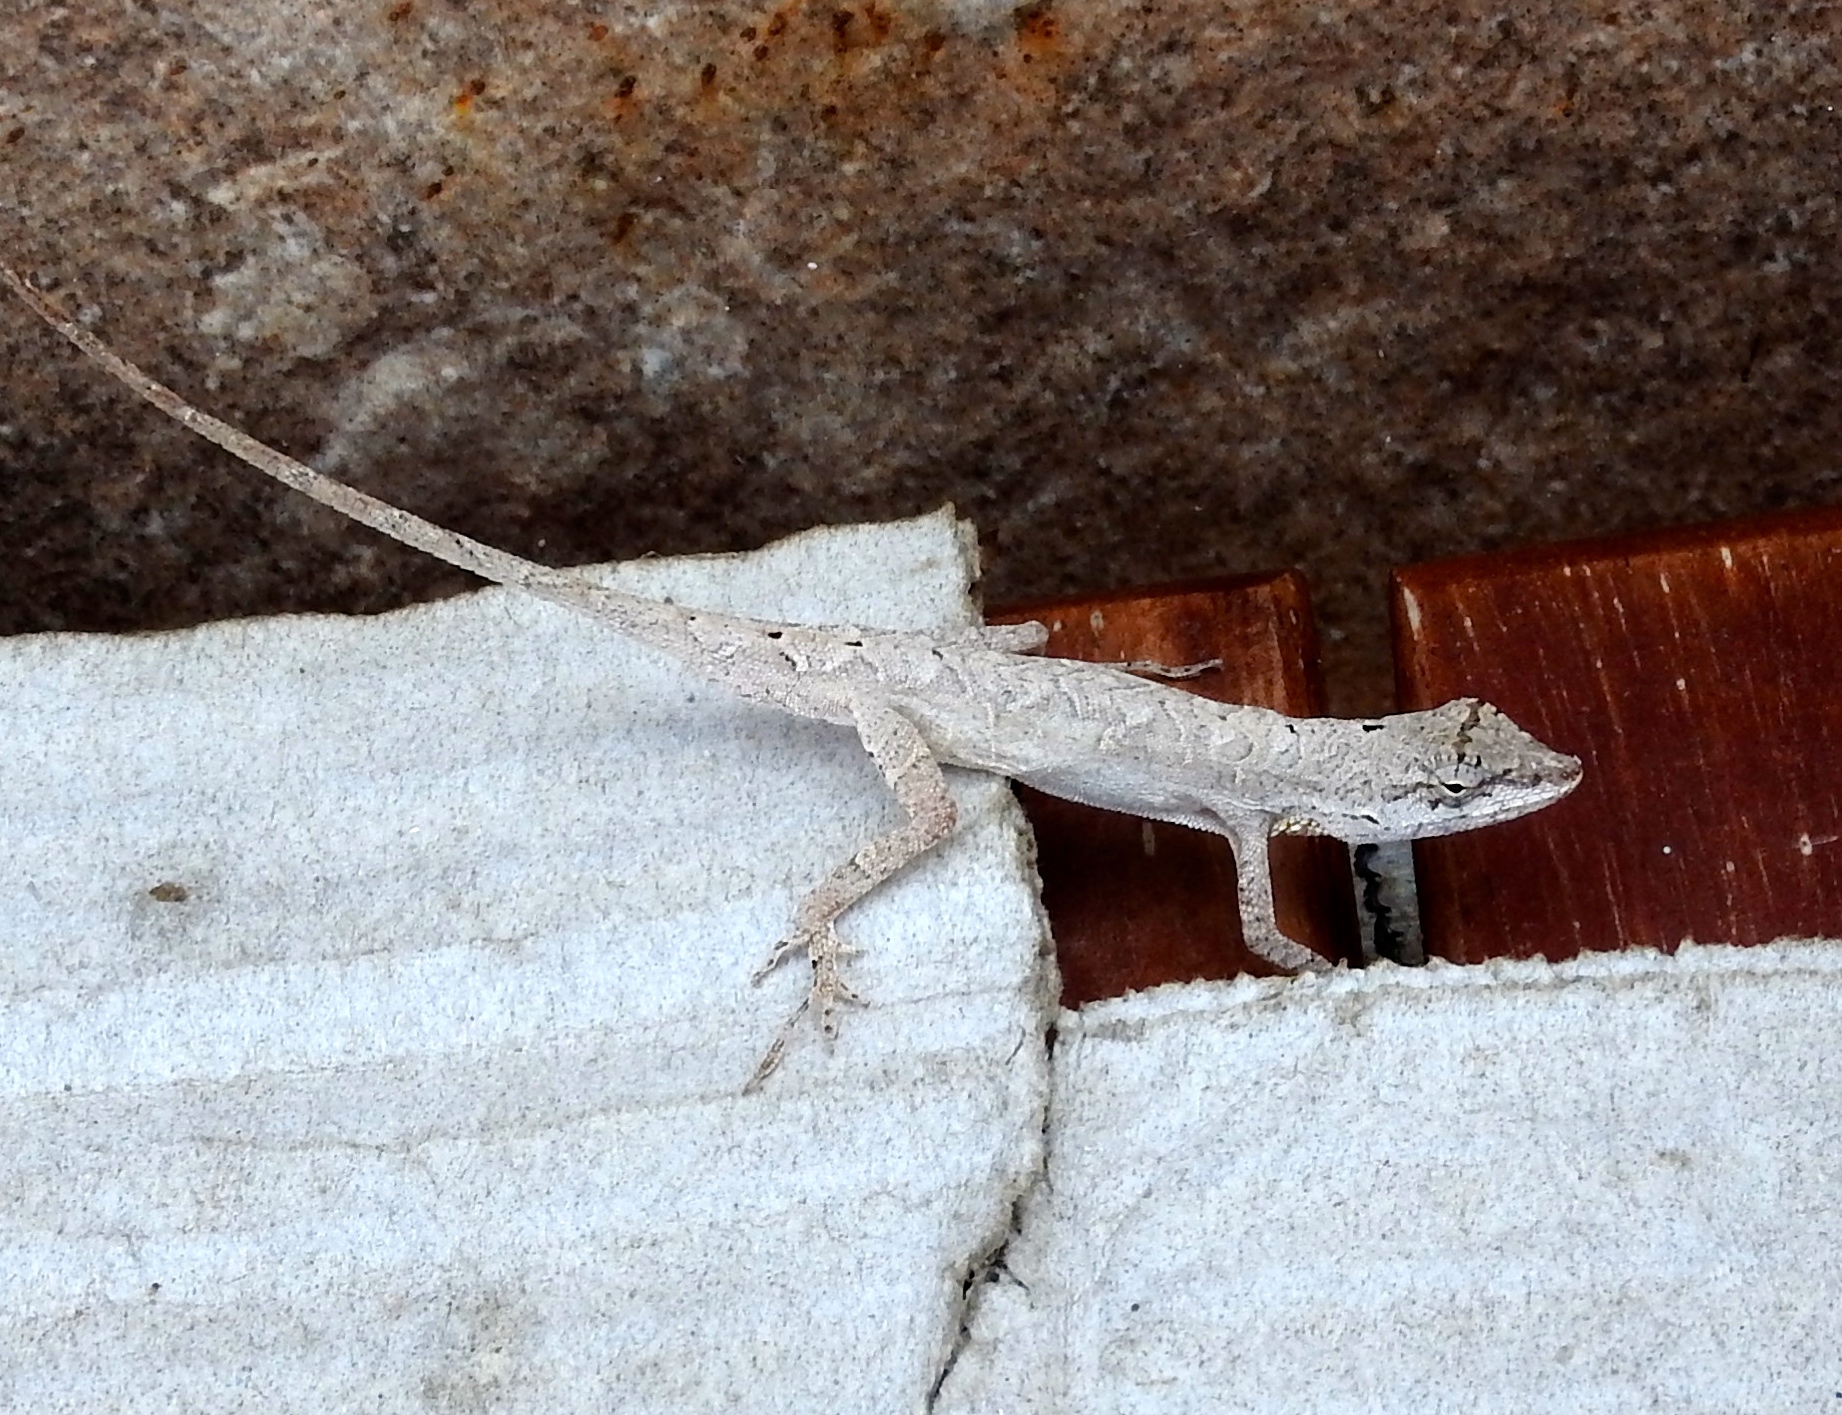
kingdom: Animalia
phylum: Chordata
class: Squamata
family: Dactyloidae
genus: Anolis
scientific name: Anolis nebulosus
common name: Clouded anole
